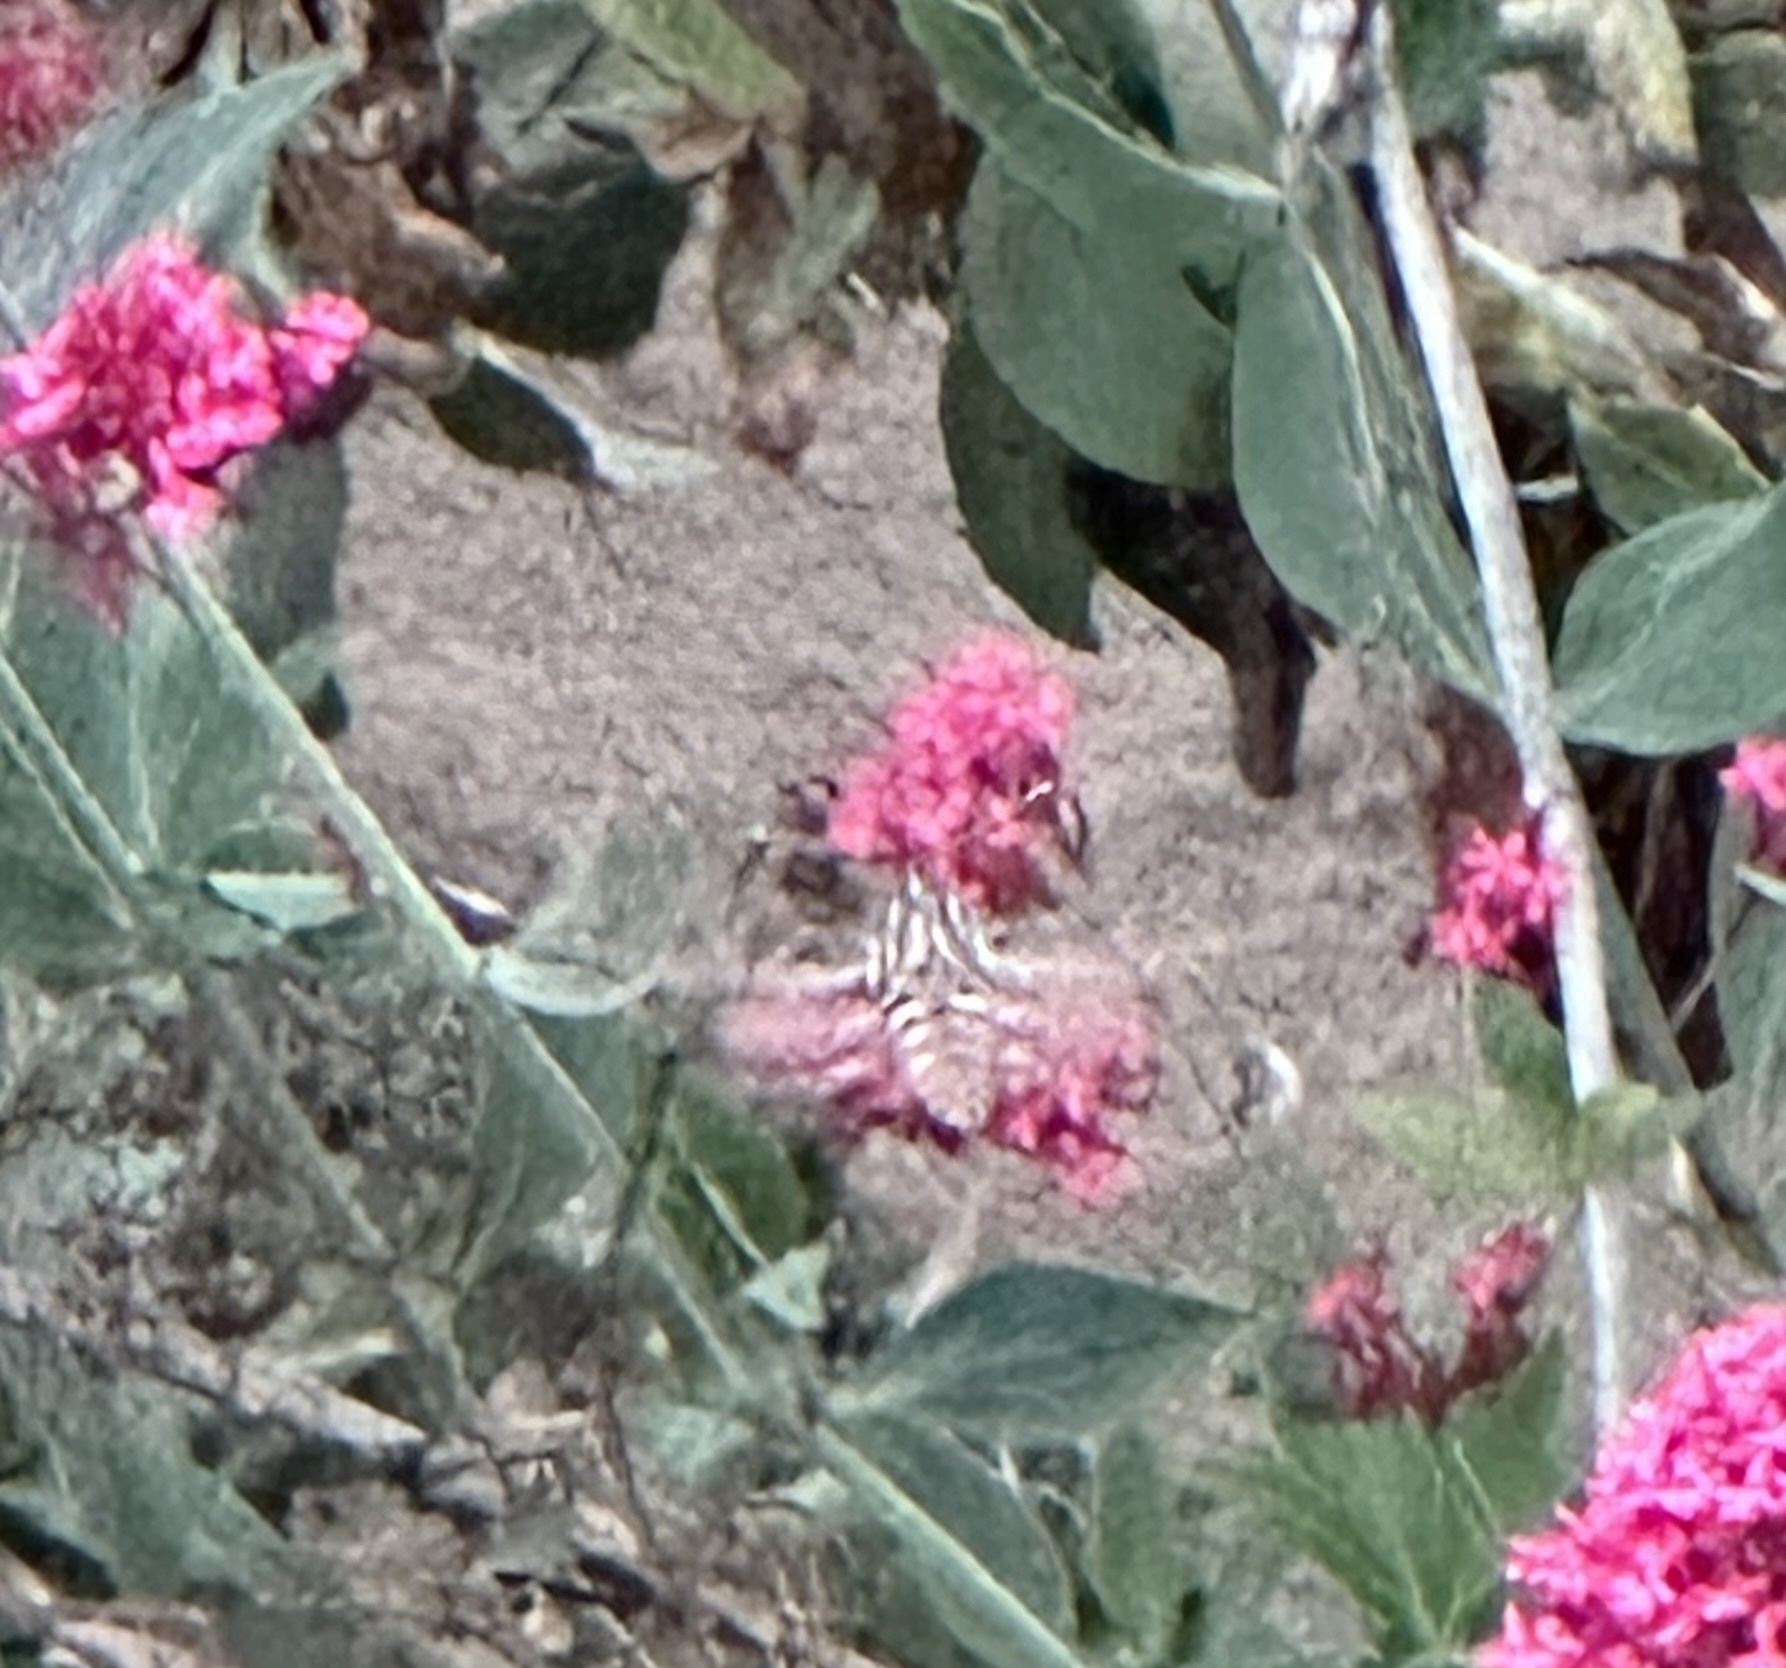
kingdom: Animalia
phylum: Arthropoda
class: Insecta
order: Lepidoptera
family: Sphingidae
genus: Hyles
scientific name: Hyles lineata
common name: White-lined sphinx
